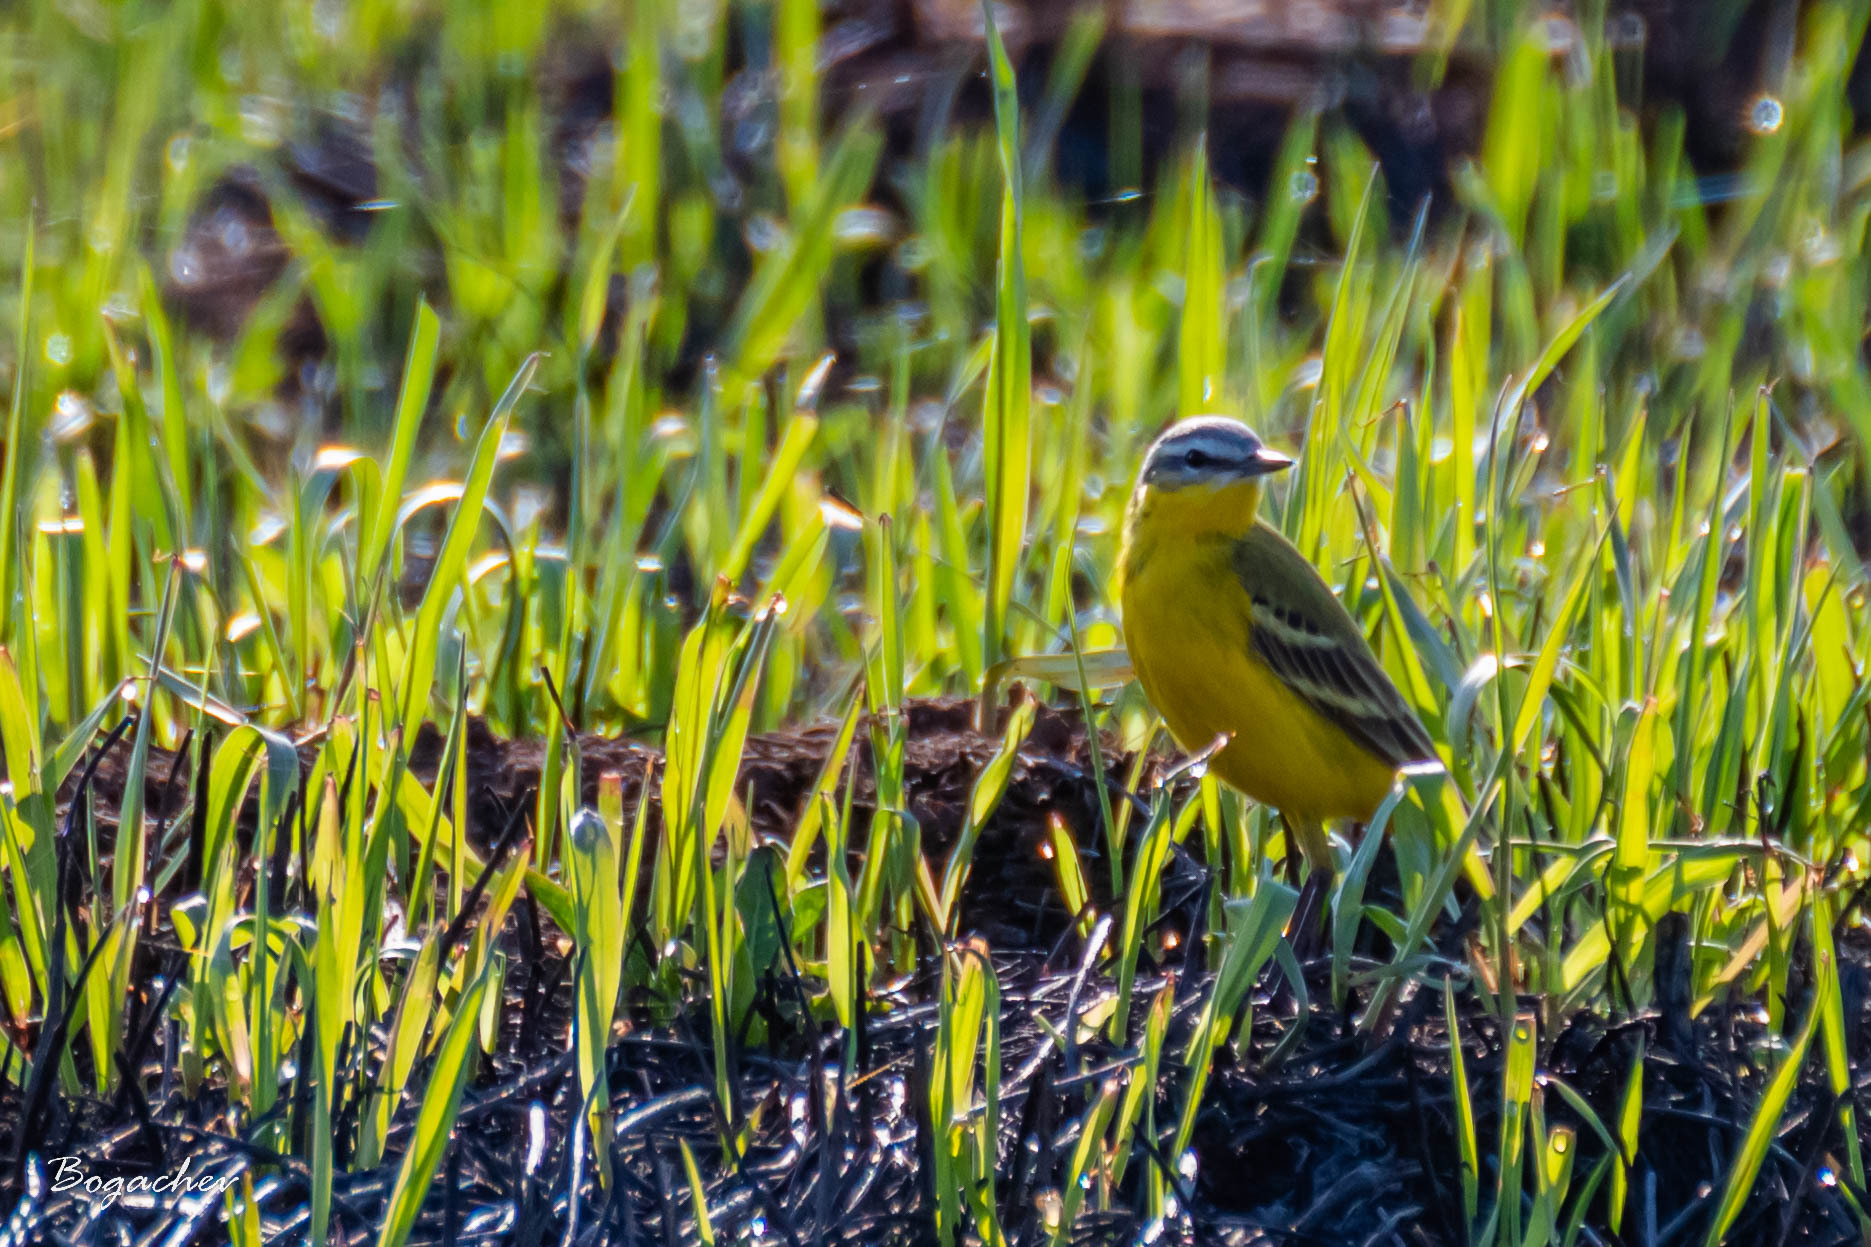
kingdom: Animalia
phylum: Chordata
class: Aves
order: Passeriformes
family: Motacillidae
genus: Motacilla
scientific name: Motacilla flava
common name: Western yellow wagtail
